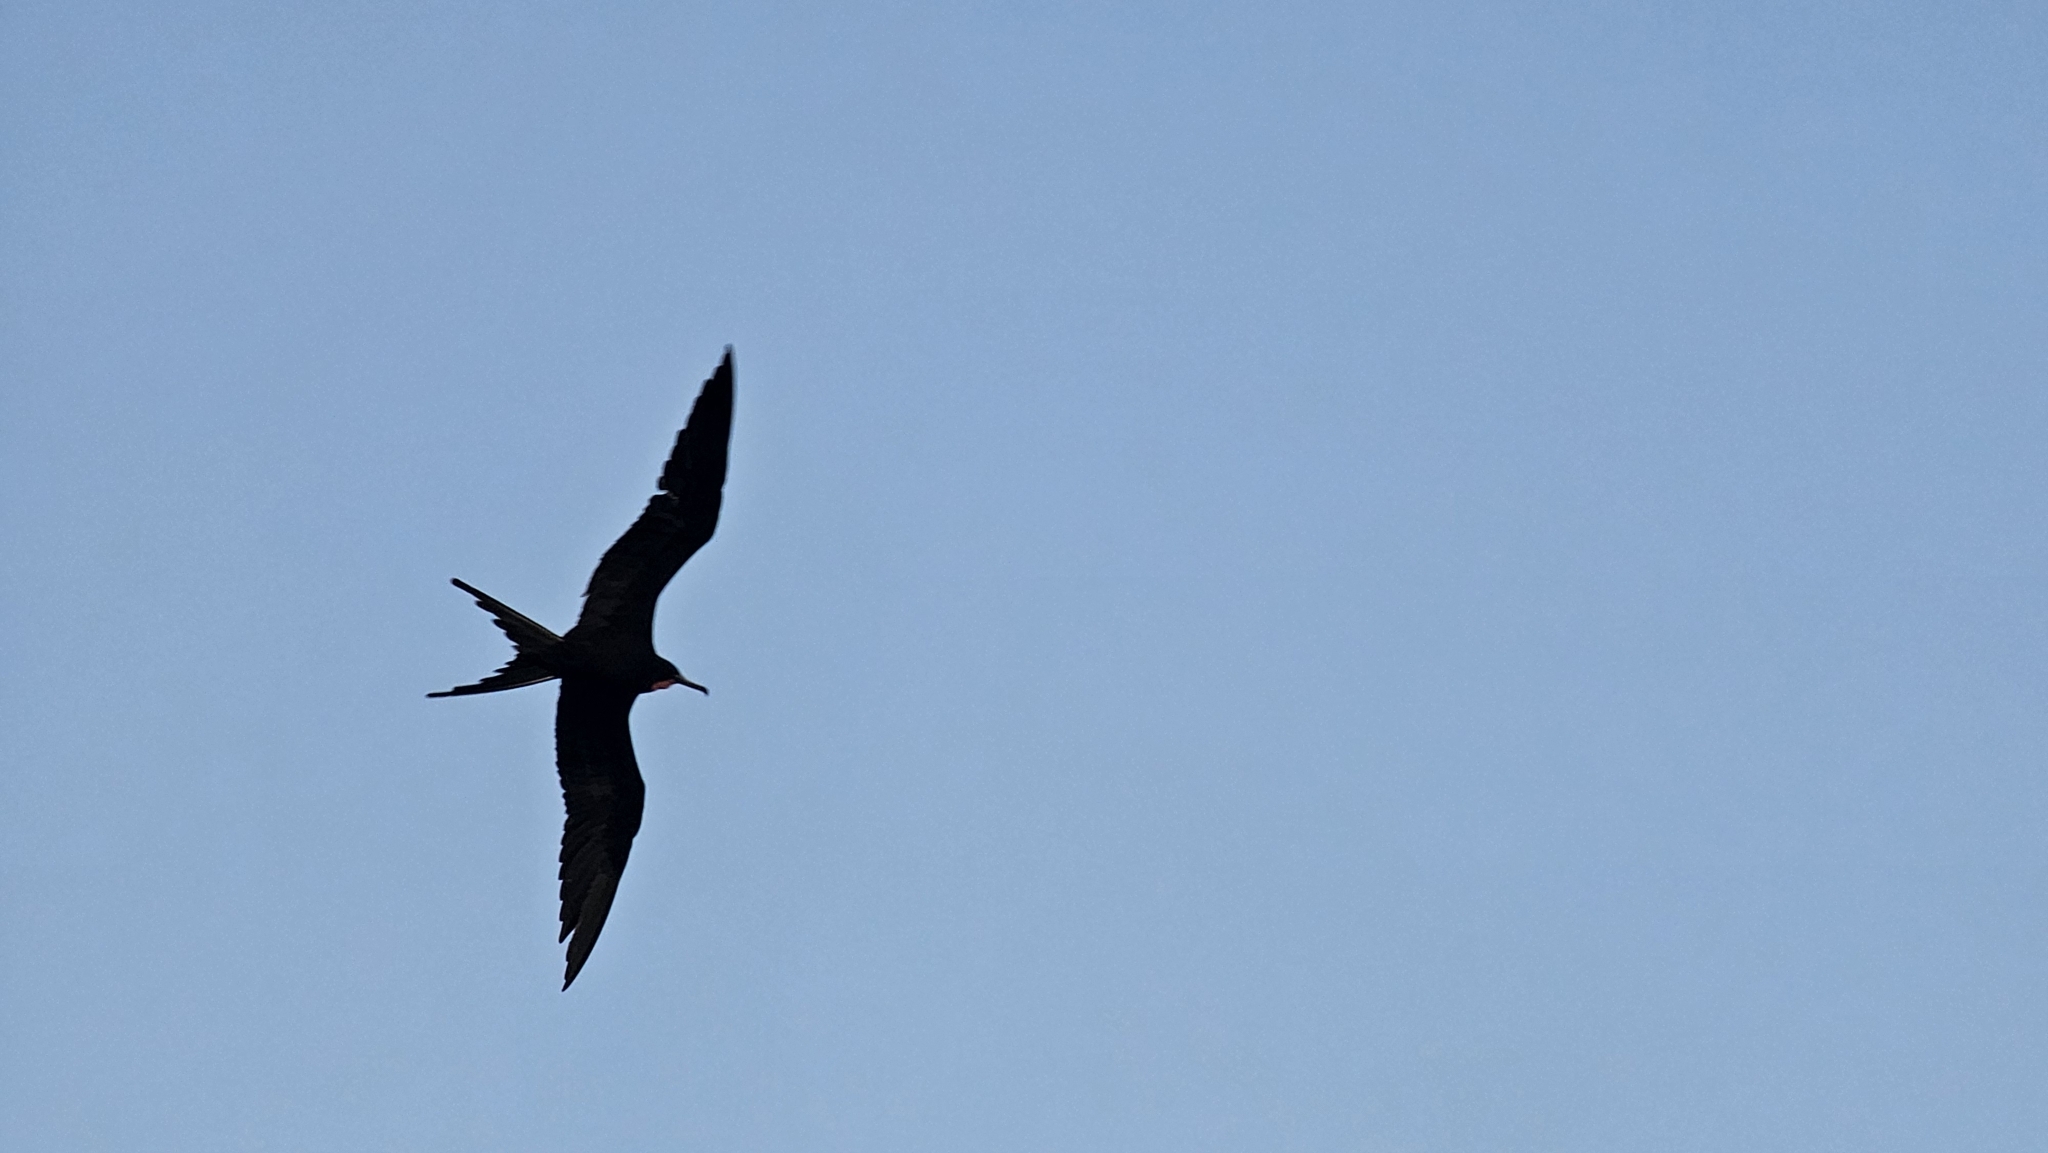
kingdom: Animalia
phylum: Chordata
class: Aves
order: Suliformes
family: Fregatidae
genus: Fregata
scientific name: Fregata magnificens
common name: Magnificent frigatebird
